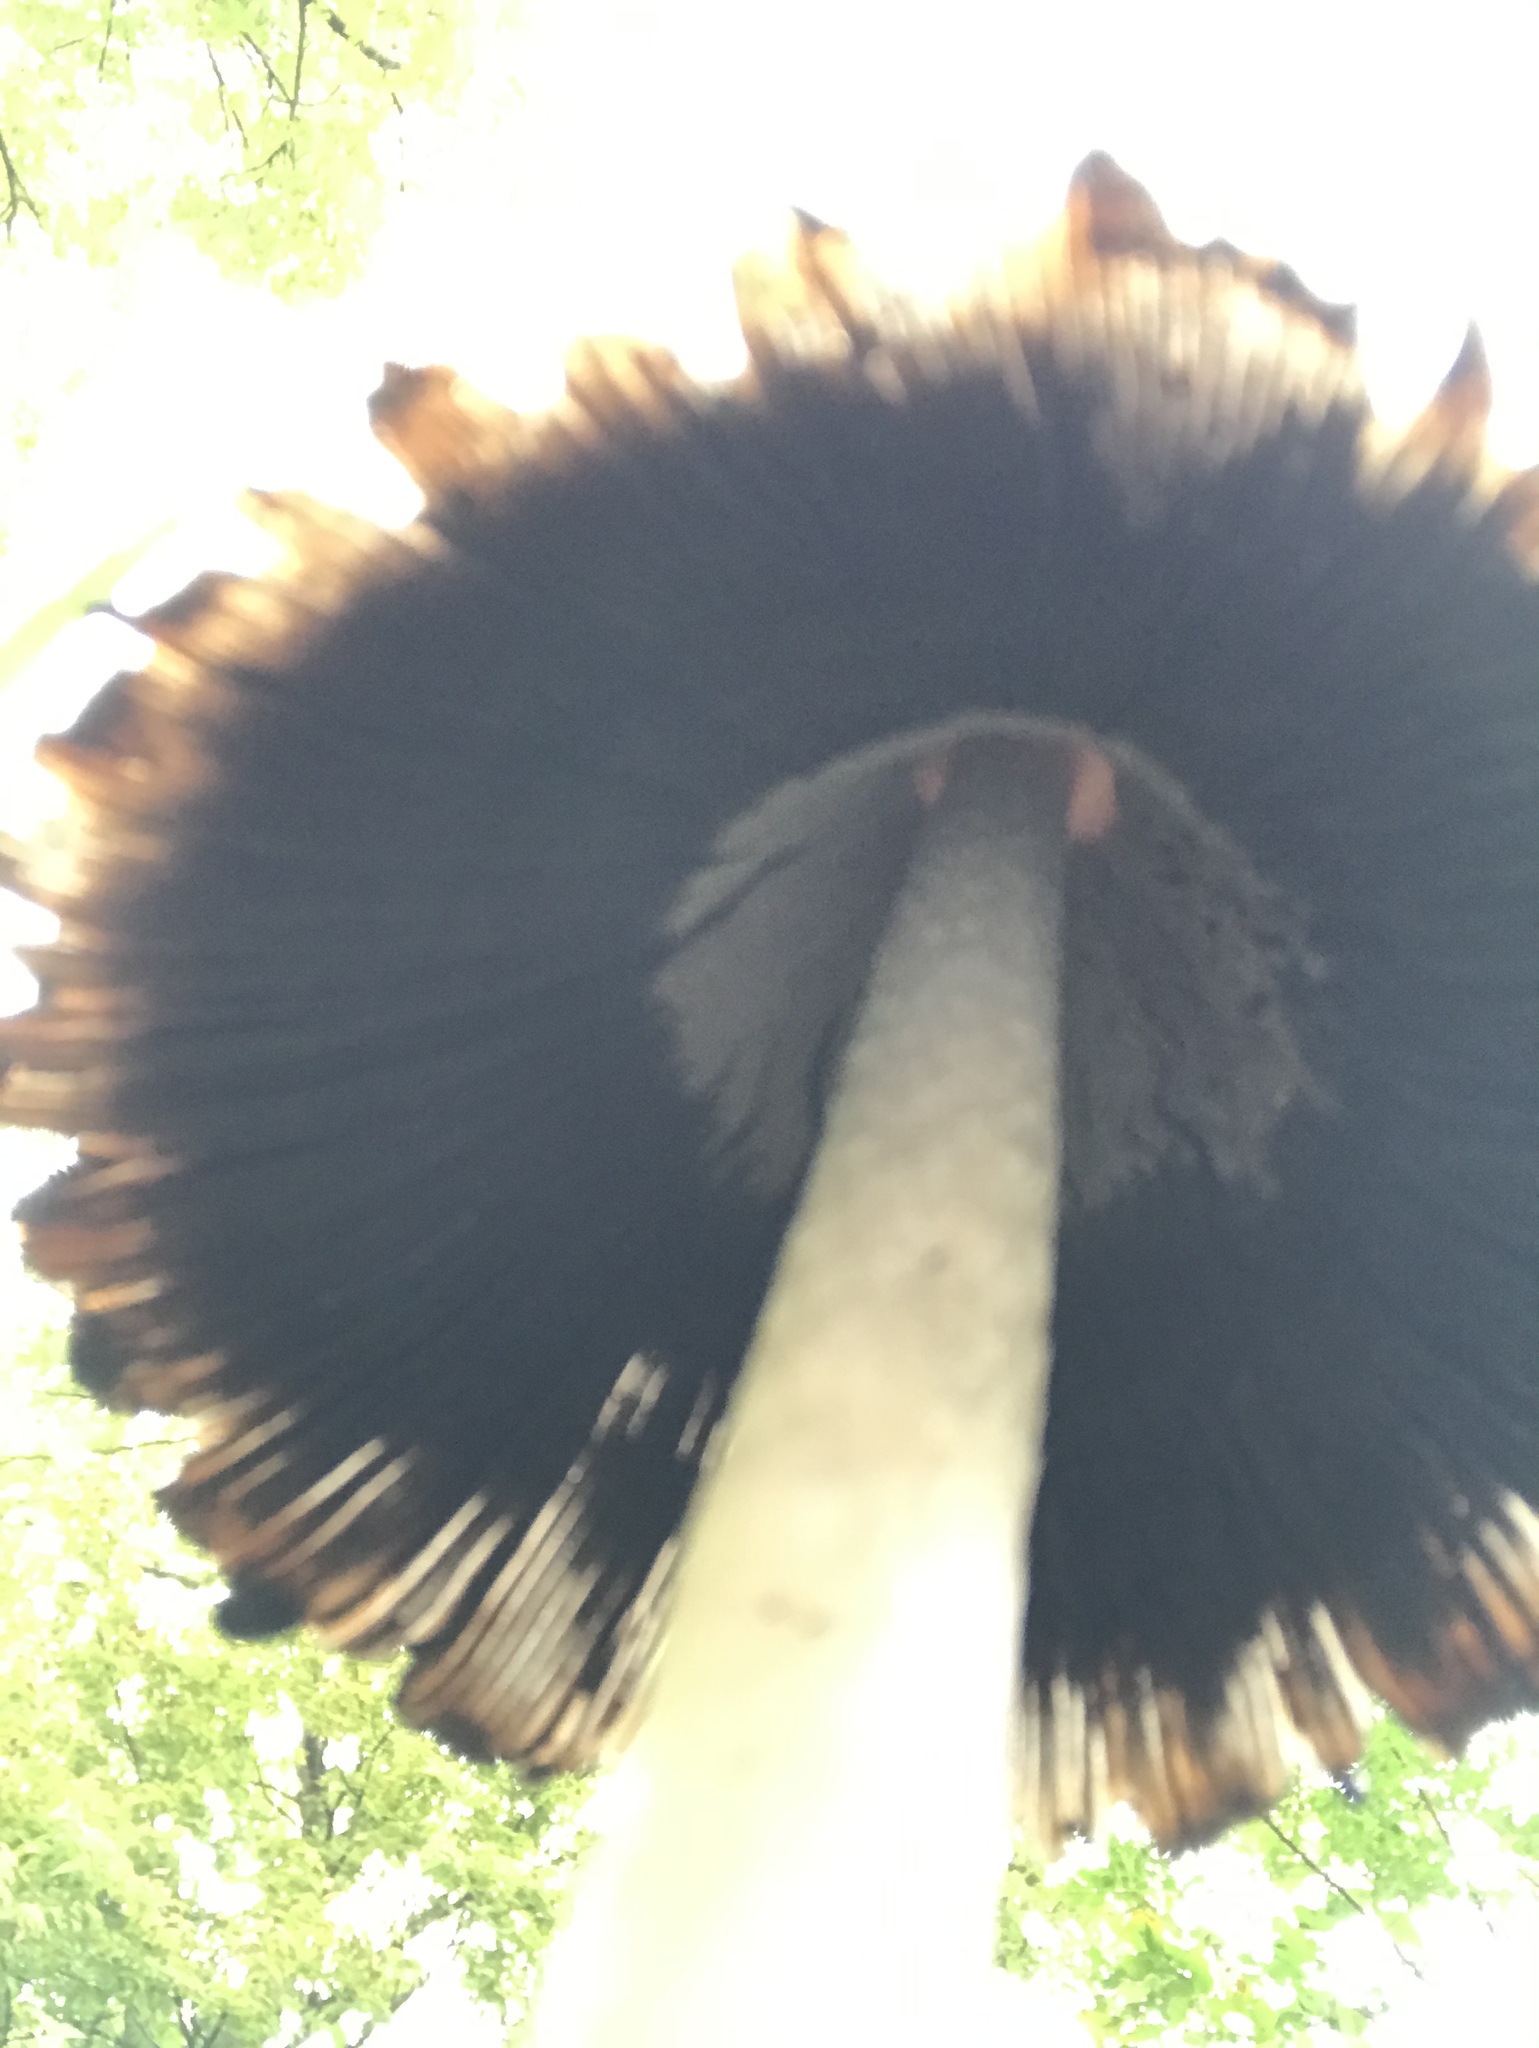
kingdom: Fungi
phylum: Basidiomycota
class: Agaricomycetes
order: Agaricales
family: Agaricaceae
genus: Coprinus
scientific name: Coprinus comatus
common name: Lawyer's wig
